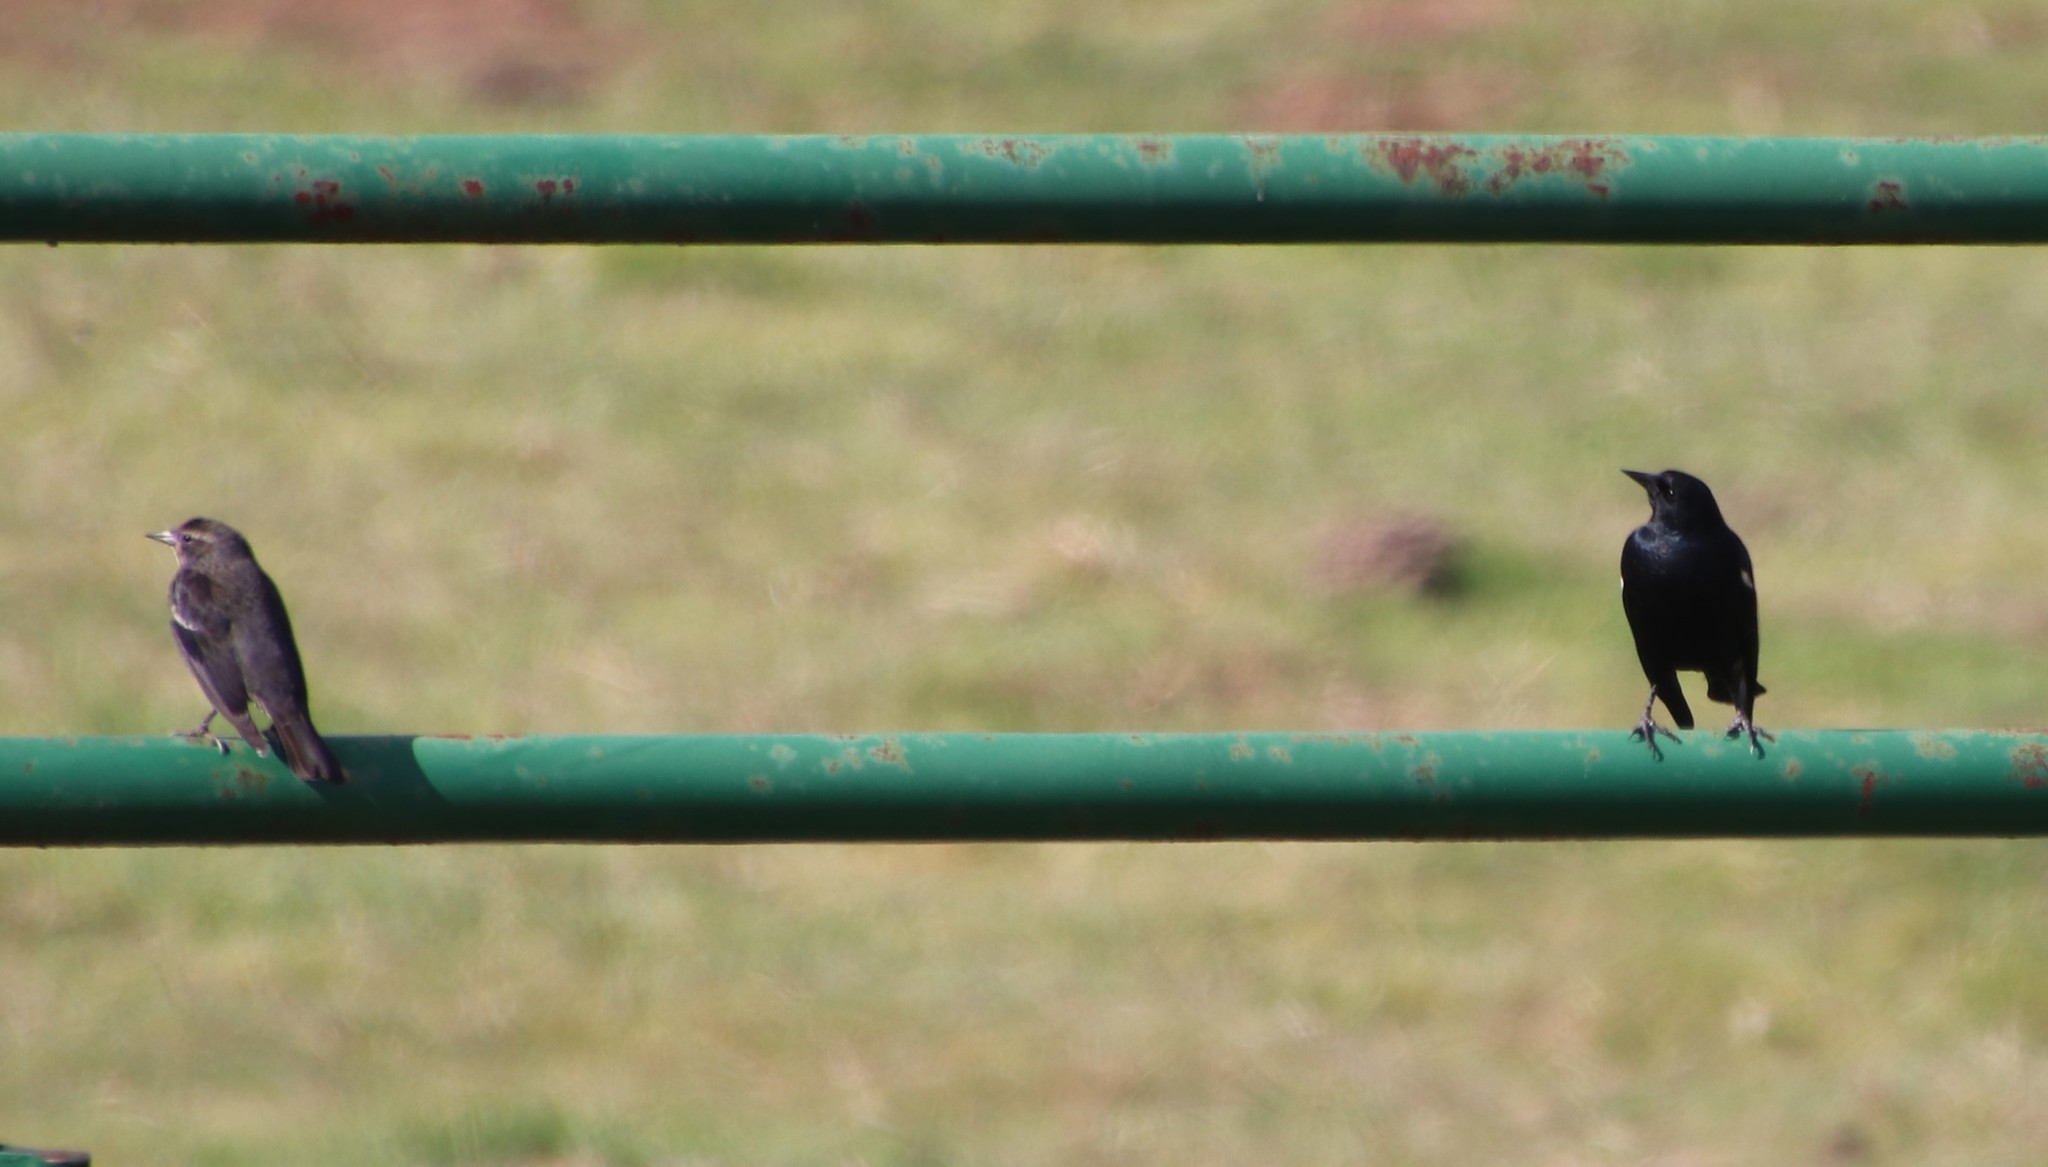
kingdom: Animalia
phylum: Chordata
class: Aves
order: Passeriformes
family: Icteridae
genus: Agelaius
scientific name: Agelaius tricolor
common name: Tricolored blackbird
